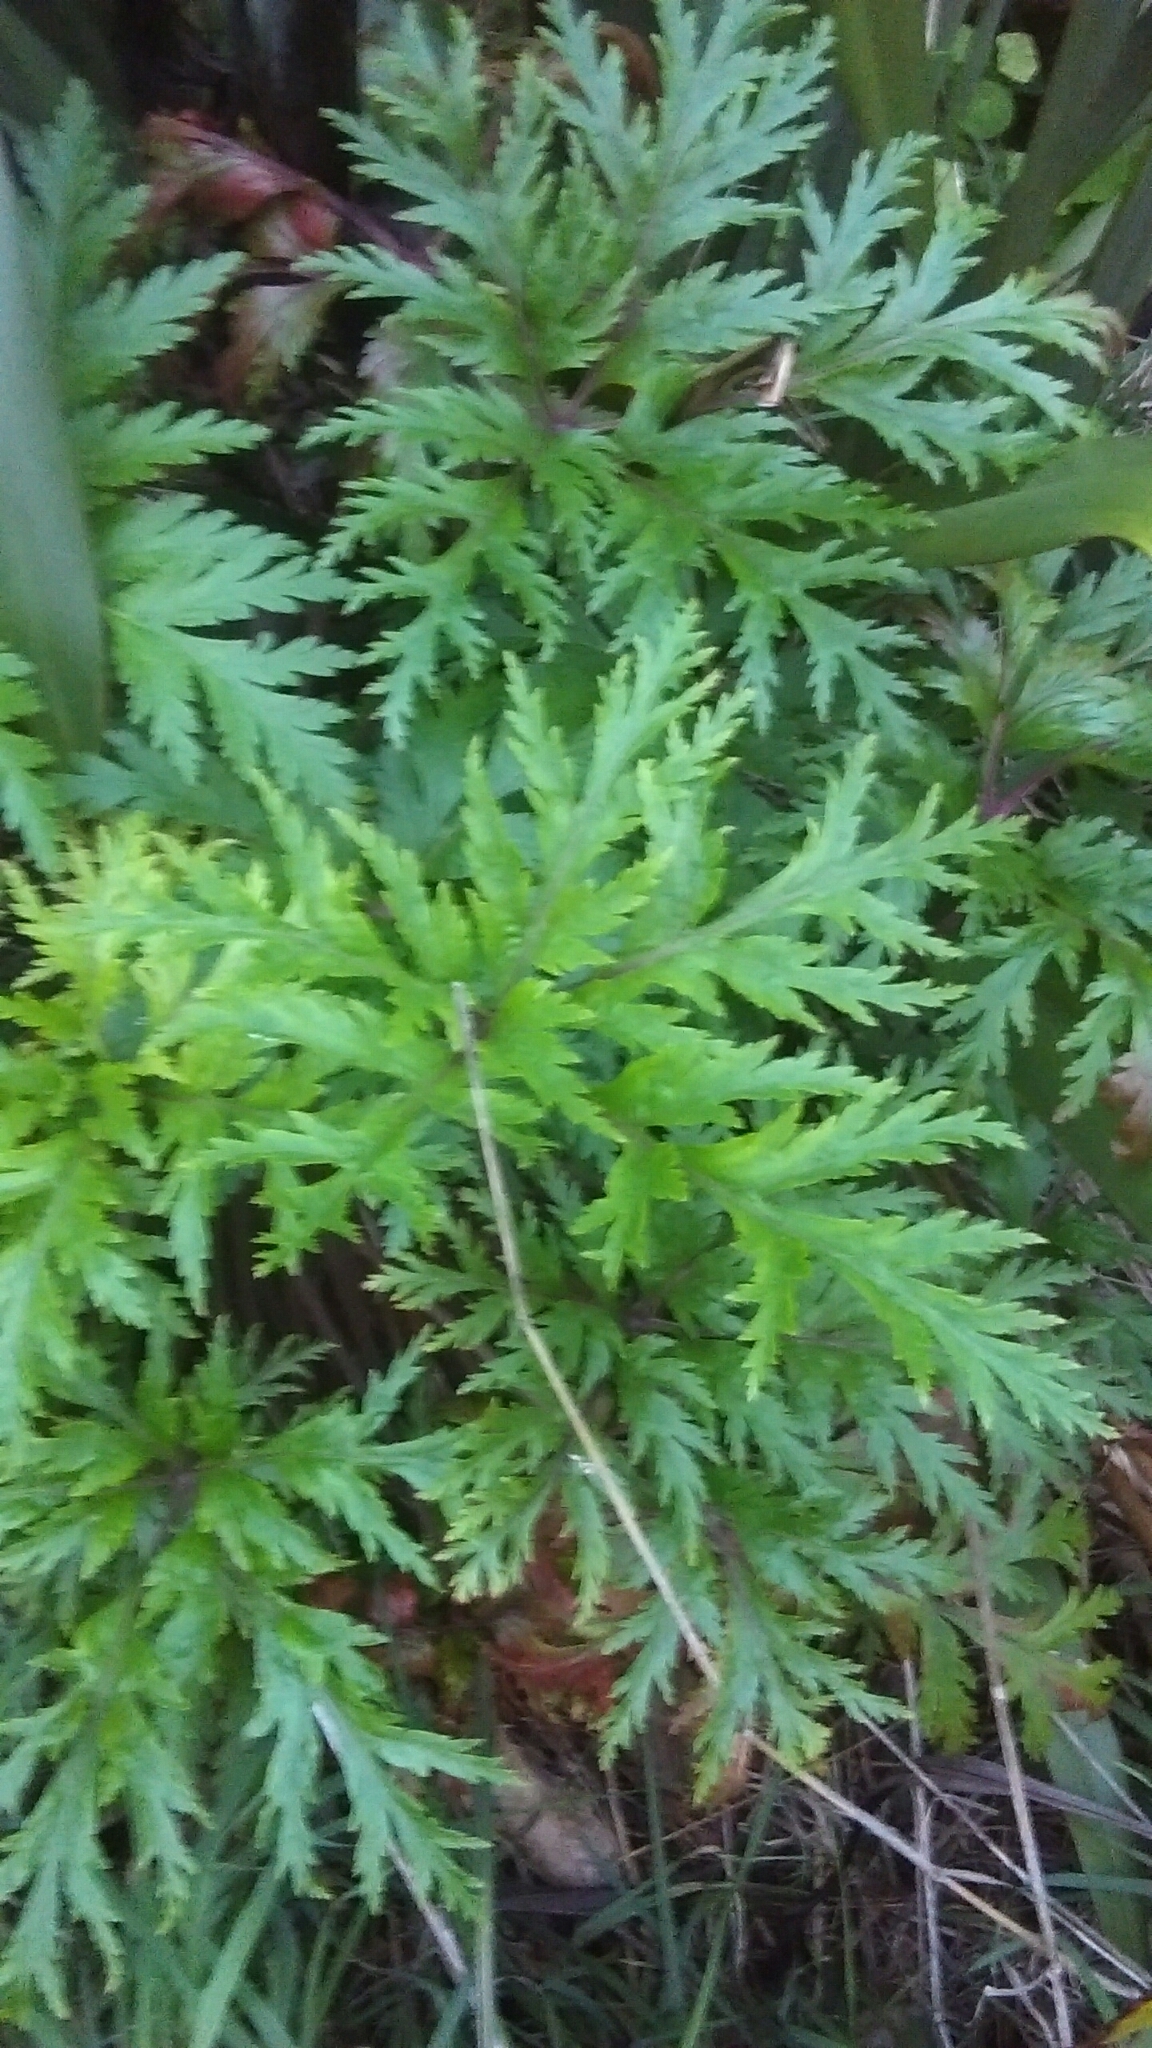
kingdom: Plantae
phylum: Tracheophyta
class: Magnoliopsida
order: Geraniales
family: Geraniaceae
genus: Geranium
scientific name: Geranium maderense
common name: Giant herb-robert
